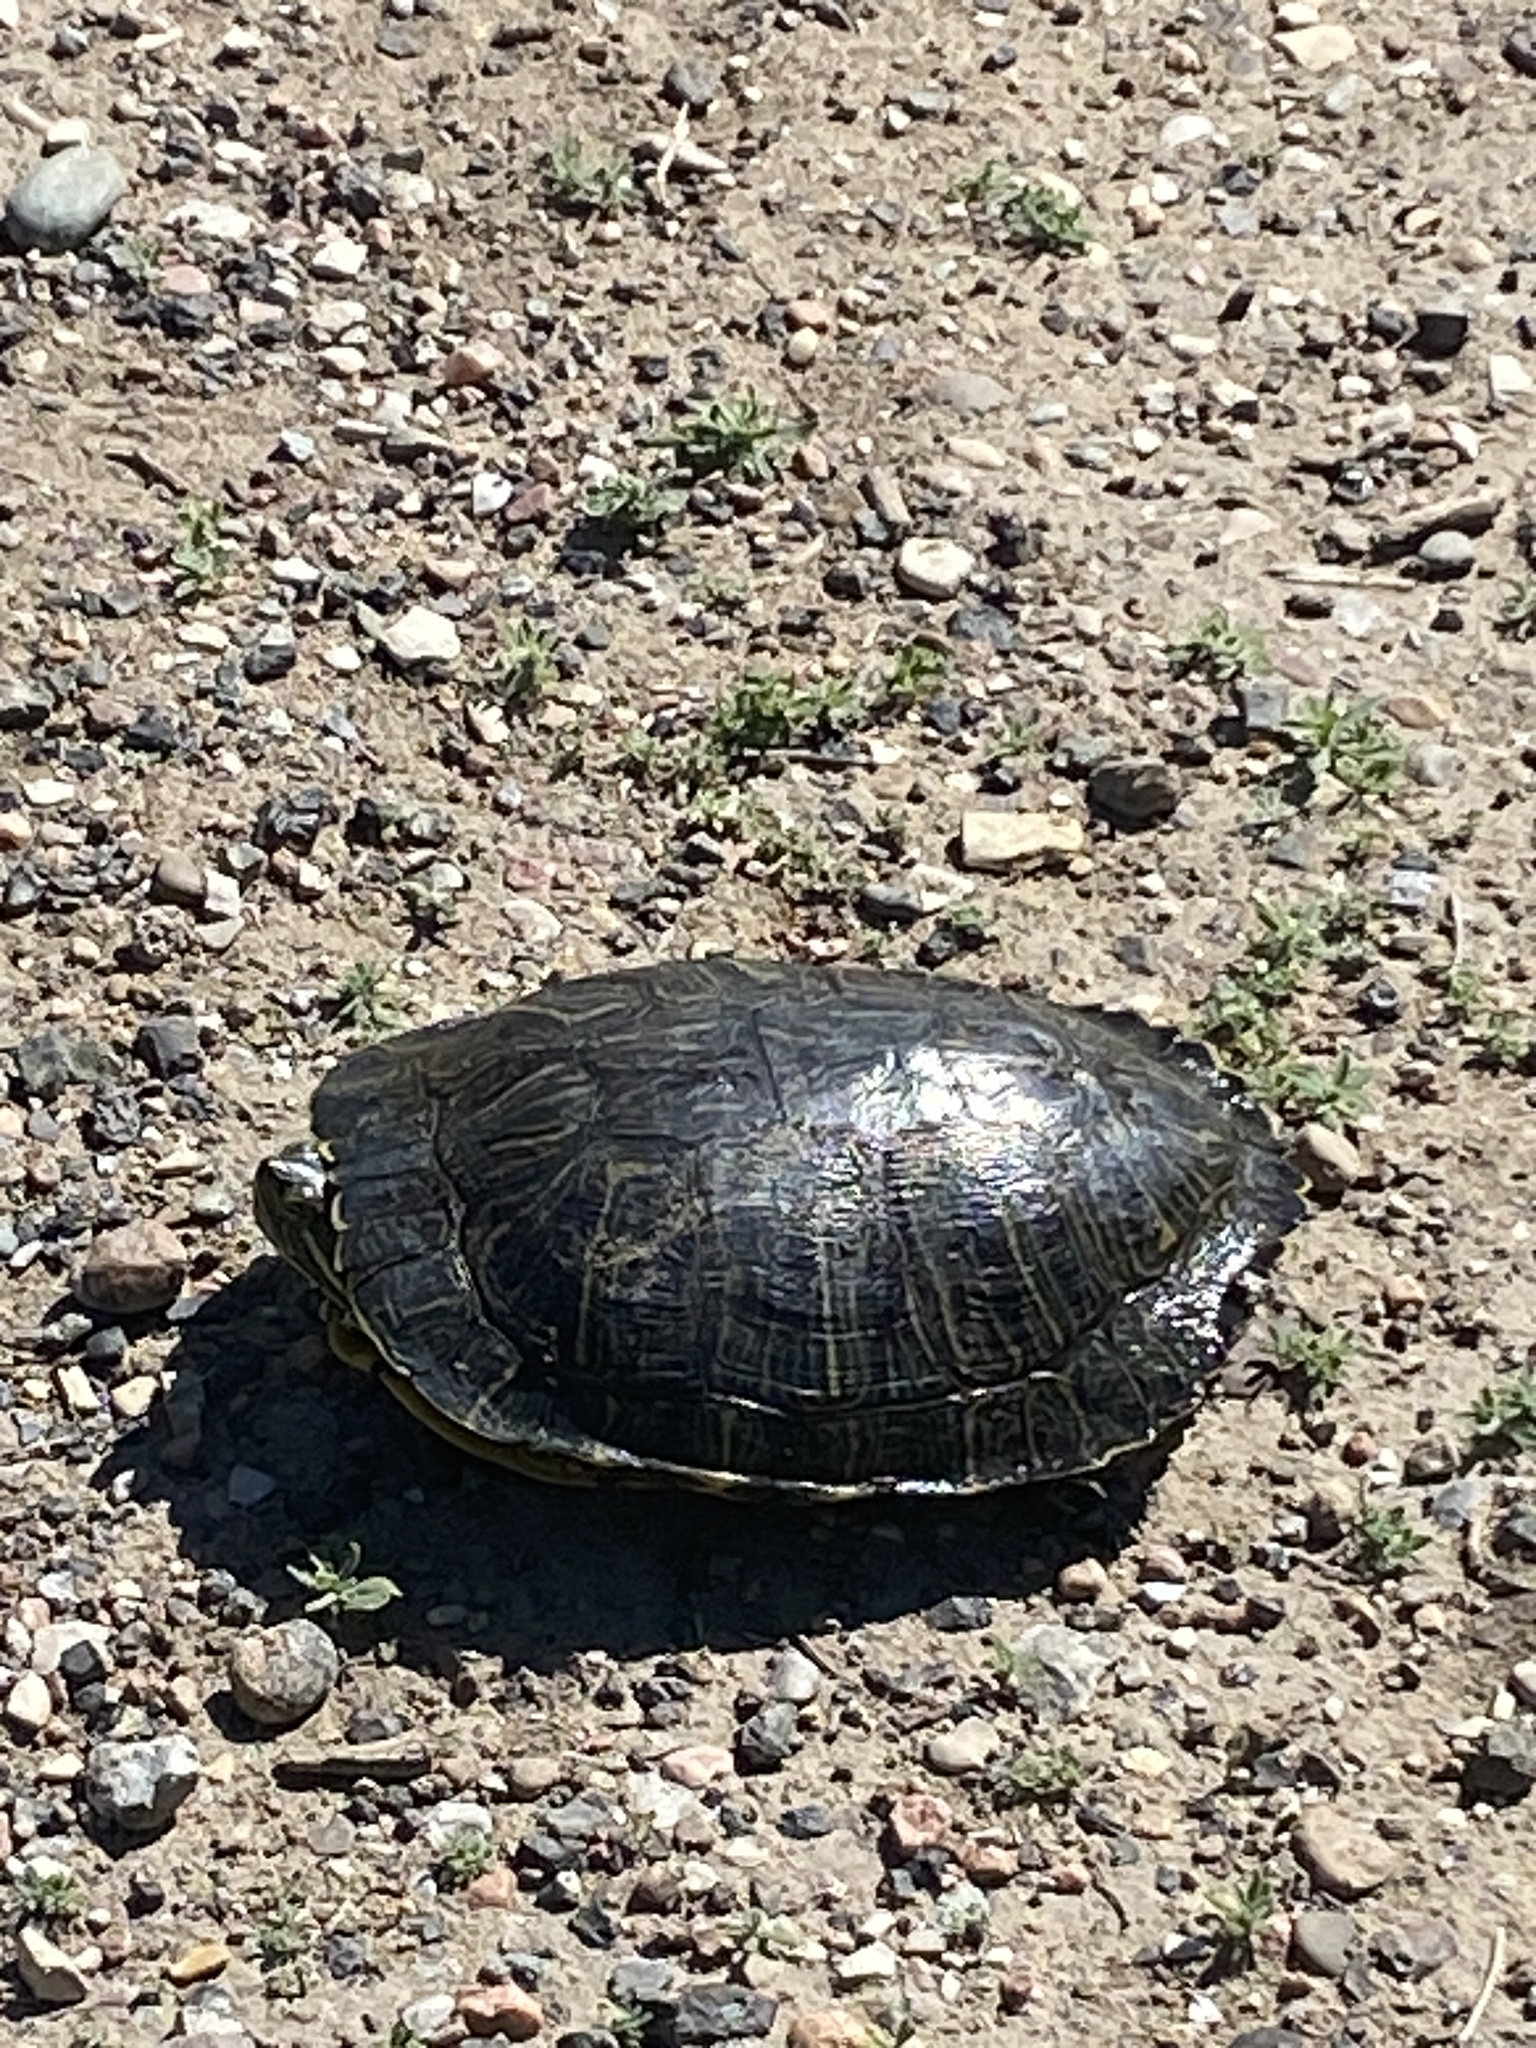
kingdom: Animalia
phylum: Chordata
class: Testudines
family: Emydidae
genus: Trachemys
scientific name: Trachemys scripta
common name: Slider
